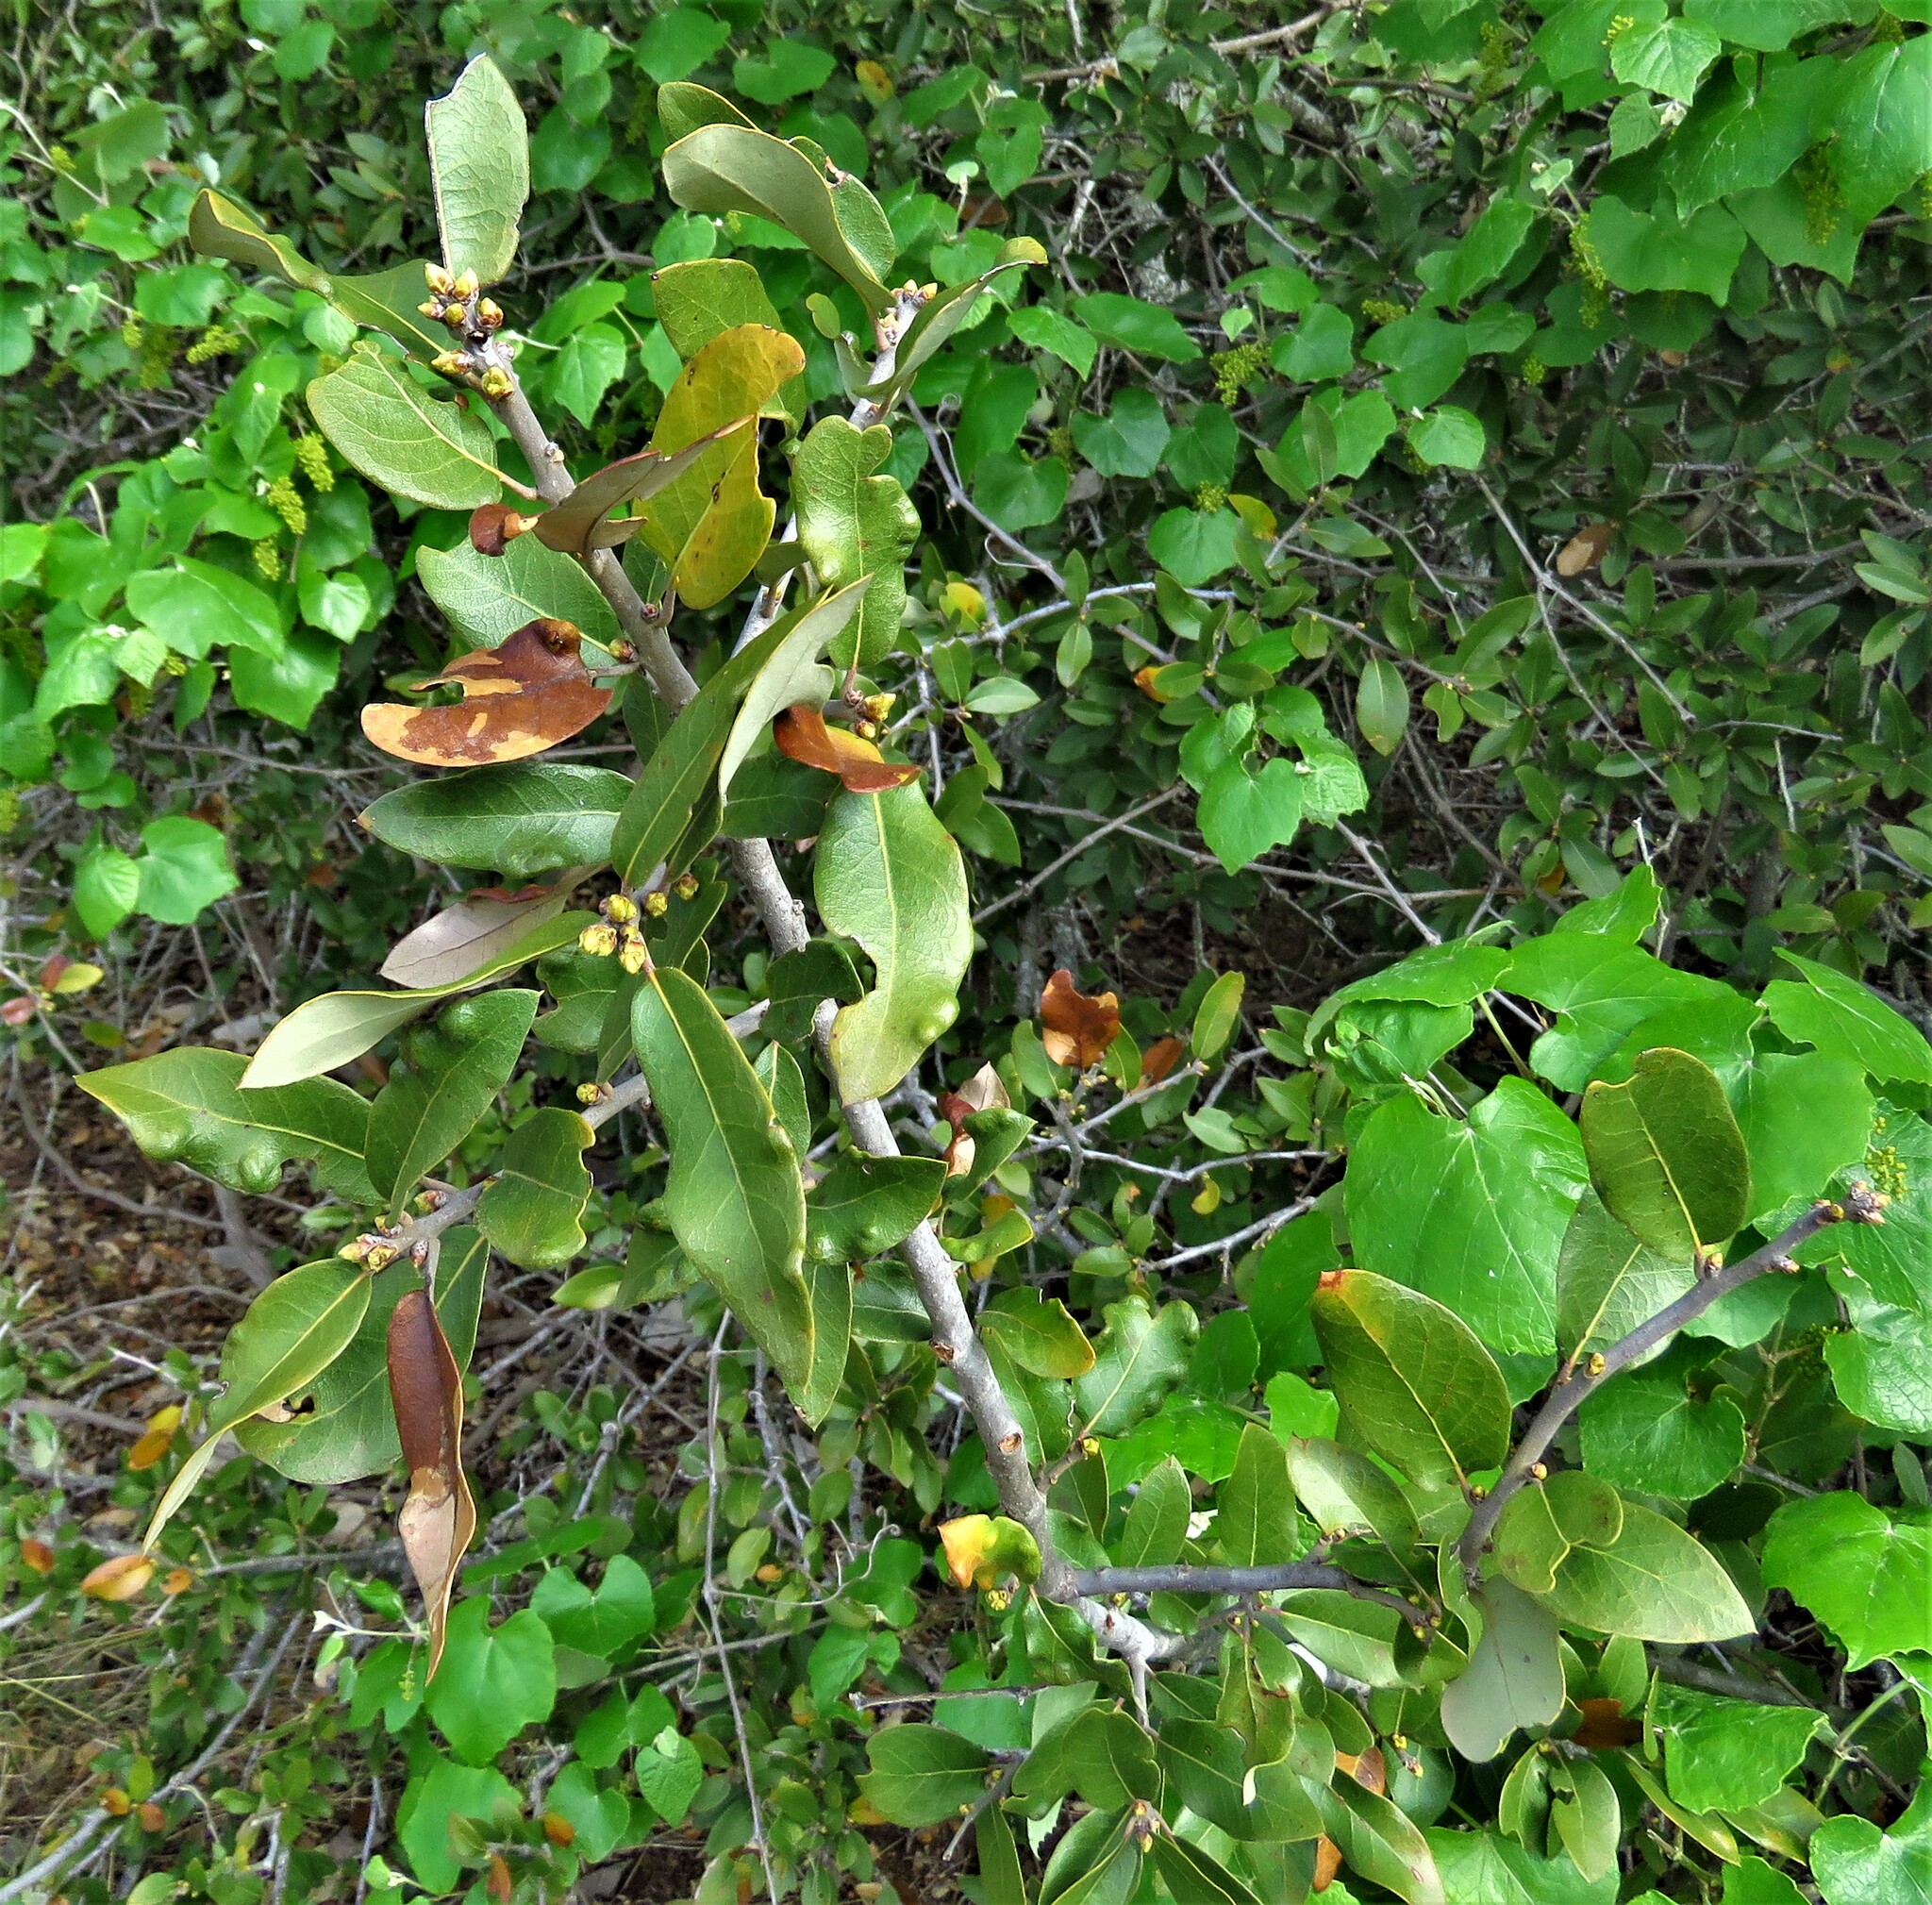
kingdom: Plantae
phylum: Tracheophyta
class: Magnoliopsida
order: Fagales
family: Fagaceae
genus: Quercus
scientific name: Quercus fusiformis
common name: Texas live oak
